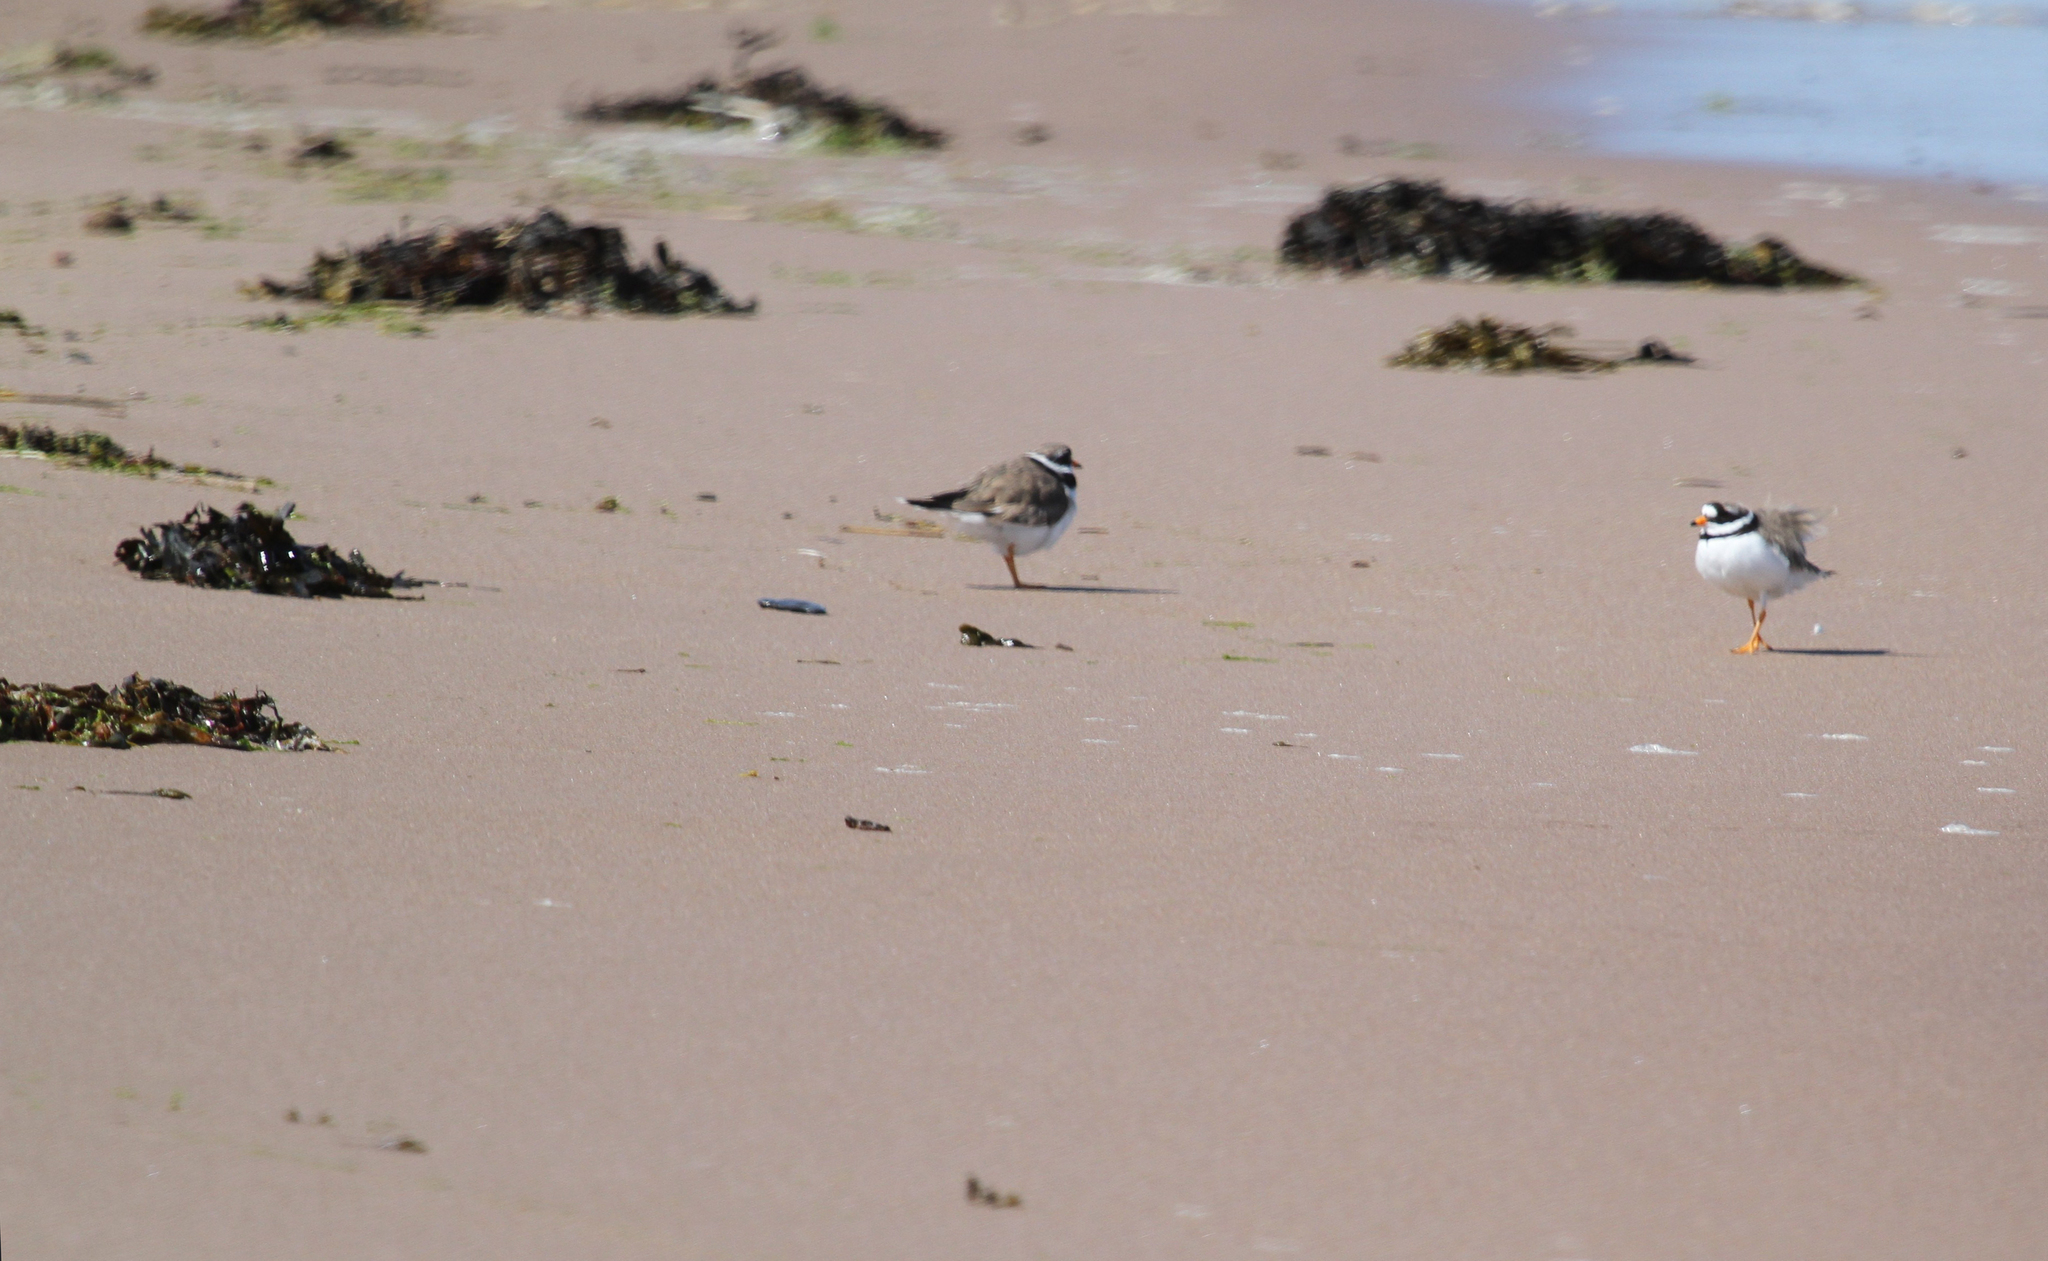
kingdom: Animalia
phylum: Chordata
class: Aves
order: Charadriiformes
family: Charadriidae
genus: Charadrius
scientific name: Charadrius hiaticula
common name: Common ringed plover
